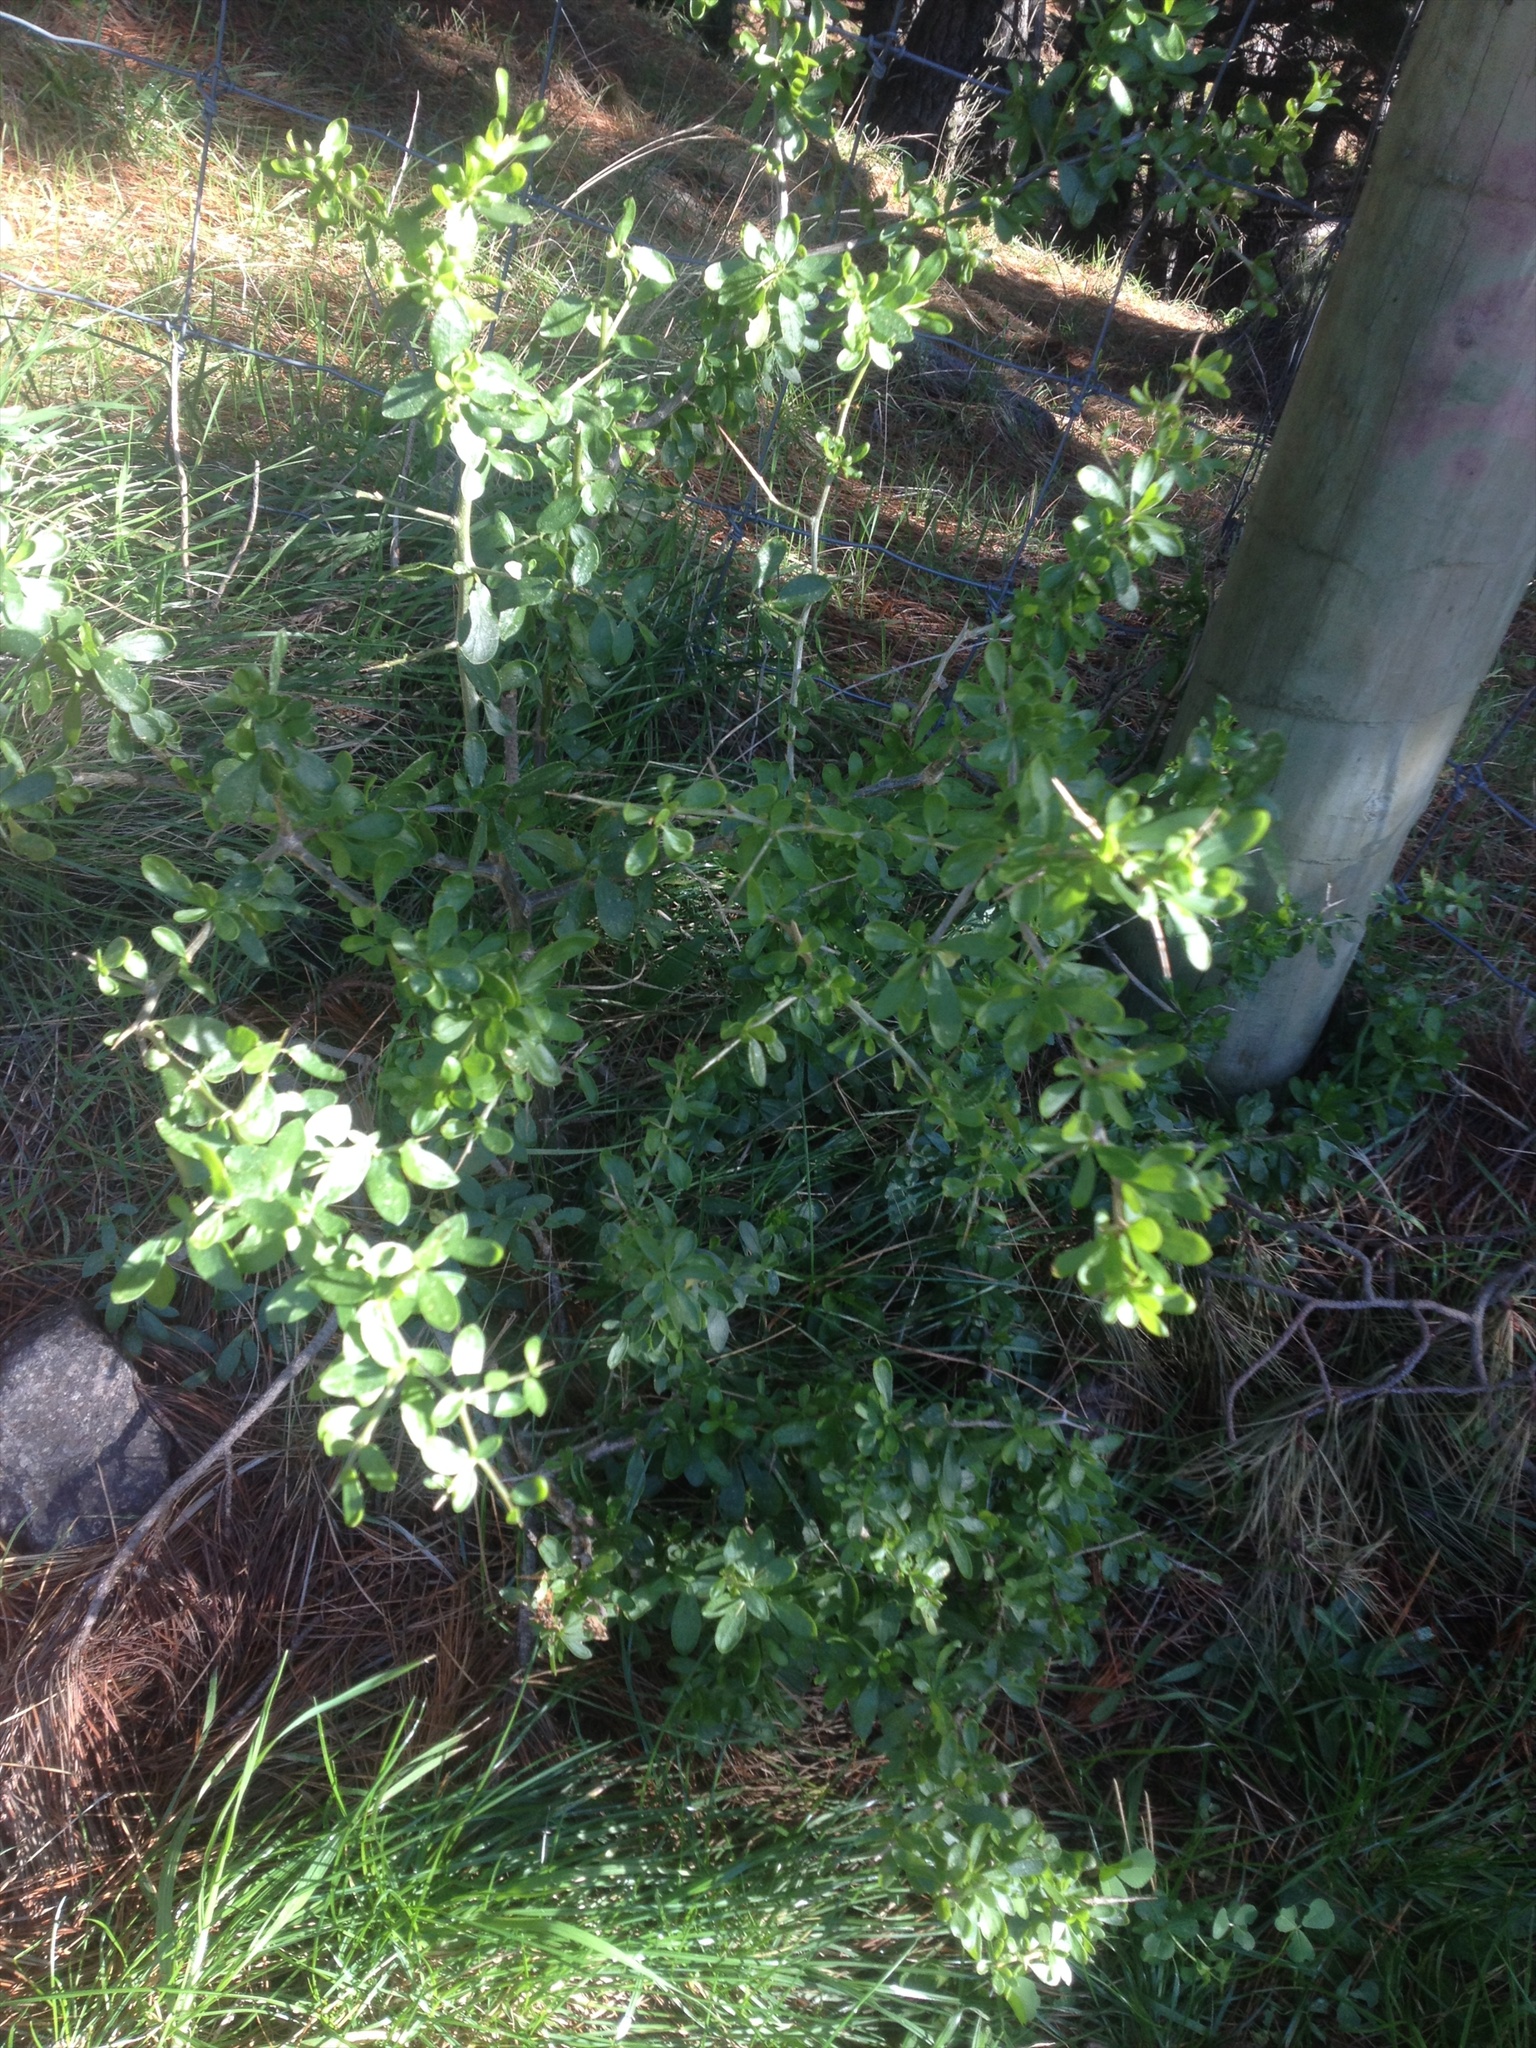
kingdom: Plantae
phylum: Tracheophyta
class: Magnoliopsida
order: Solanales
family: Solanaceae
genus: Lycium
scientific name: Lycium ferocissimum
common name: African boxthorn
